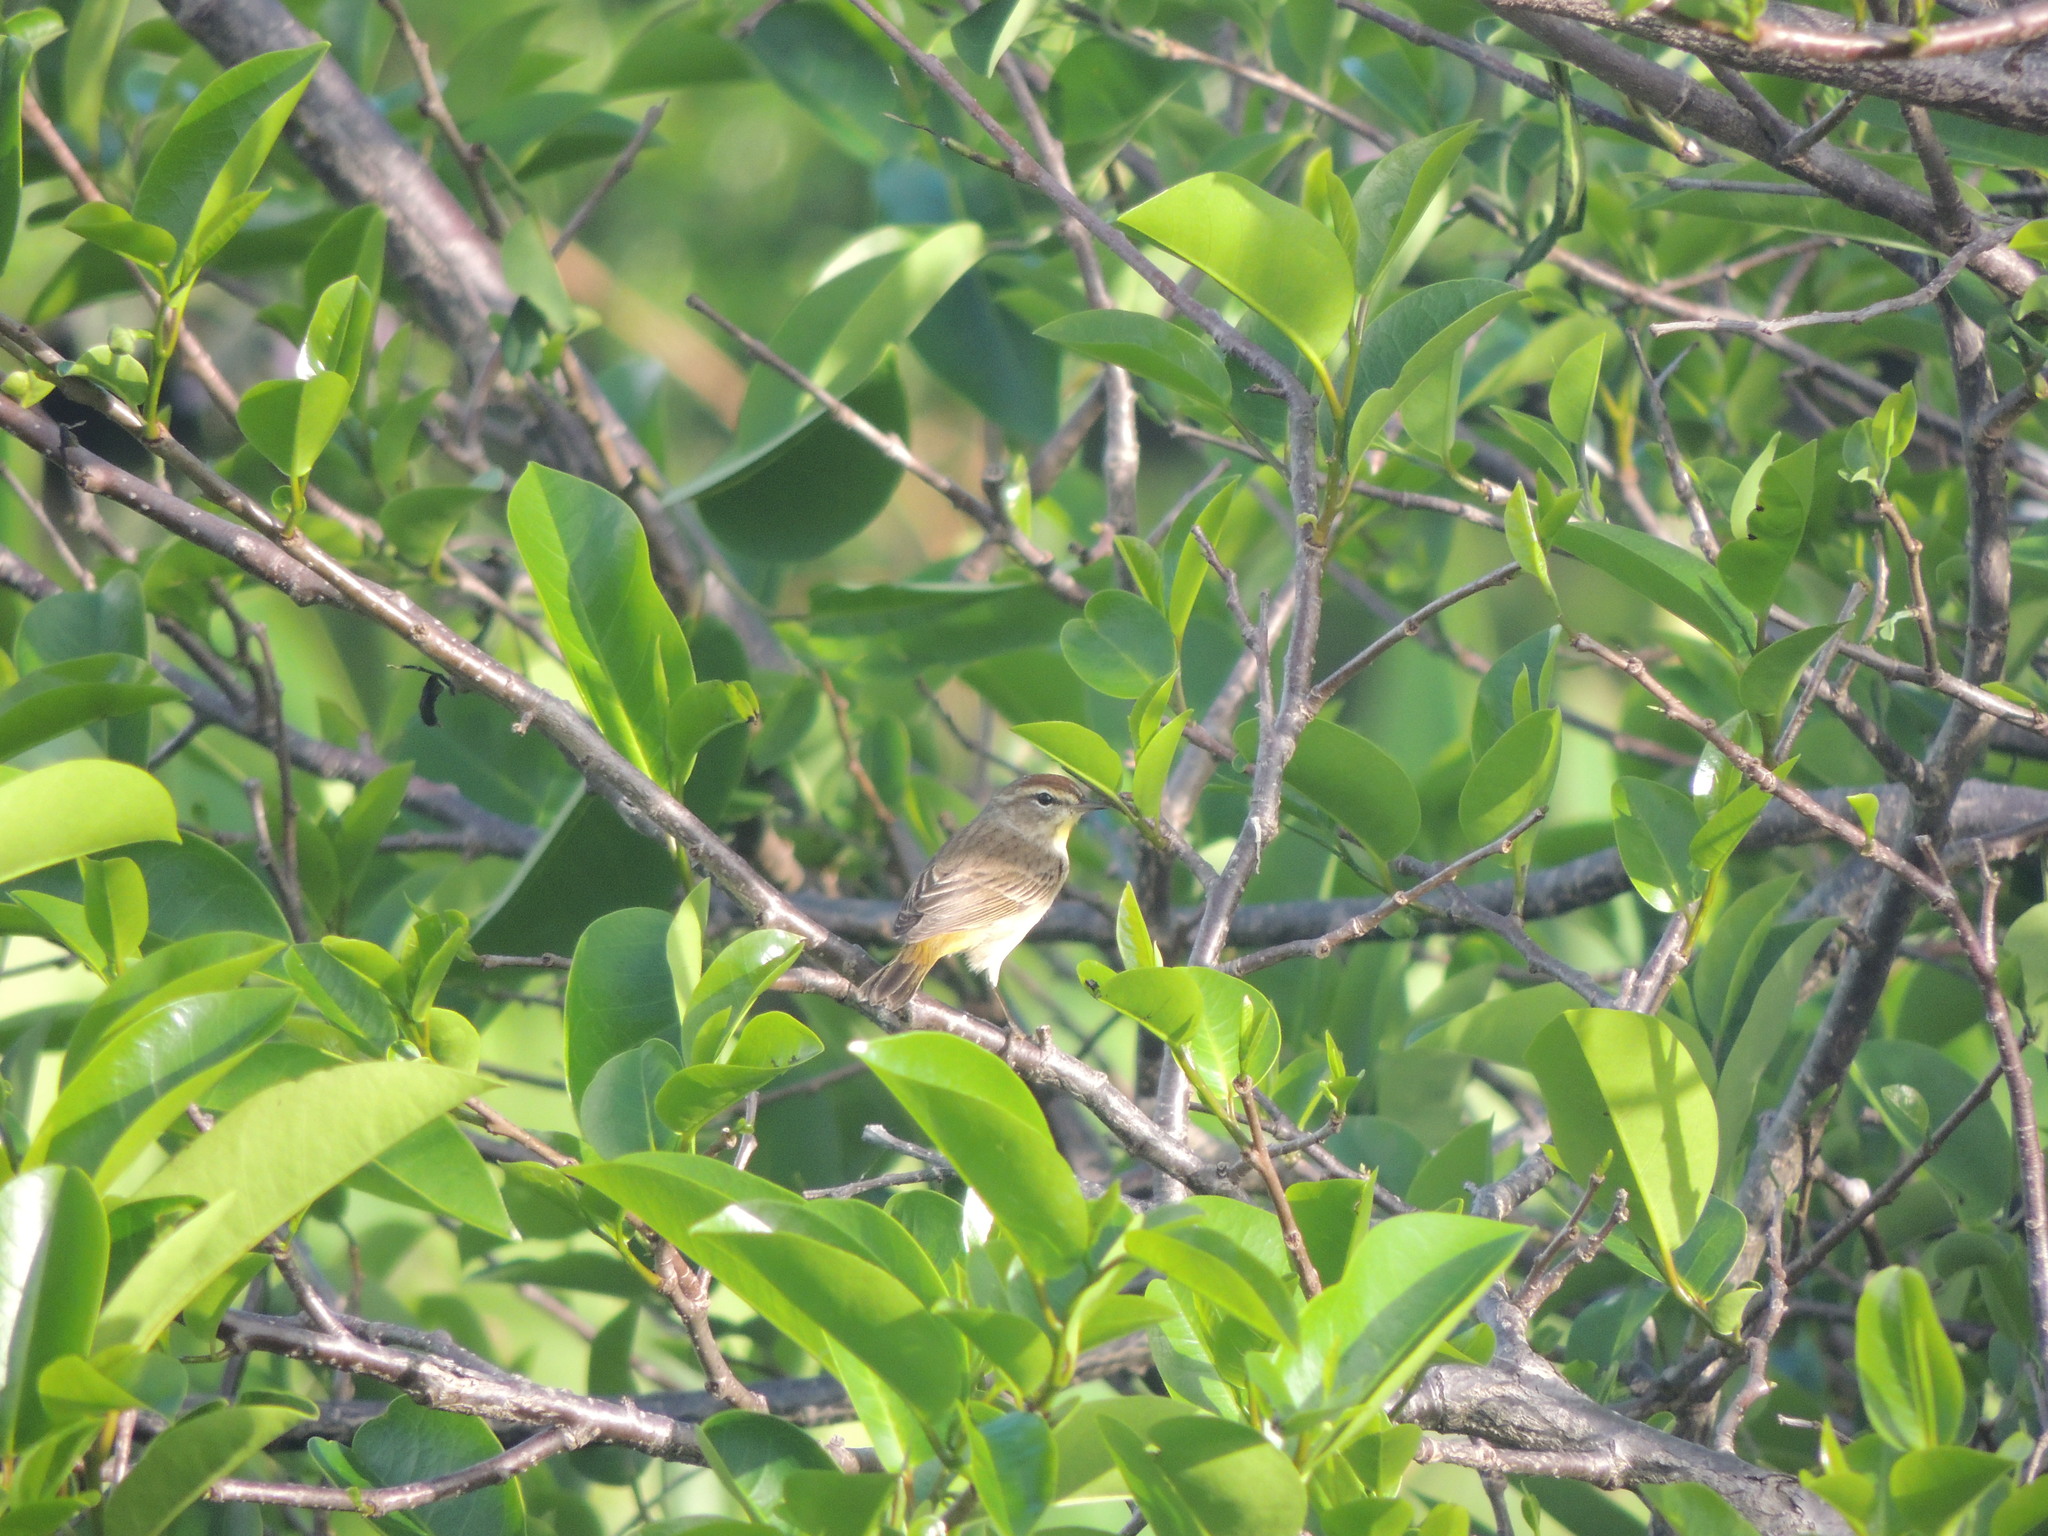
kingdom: Animalia
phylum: Chordata
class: Aves
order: Passeriformes
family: Parulidae
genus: Setophaga
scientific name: Setophaga palmarum
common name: Palm warbler
